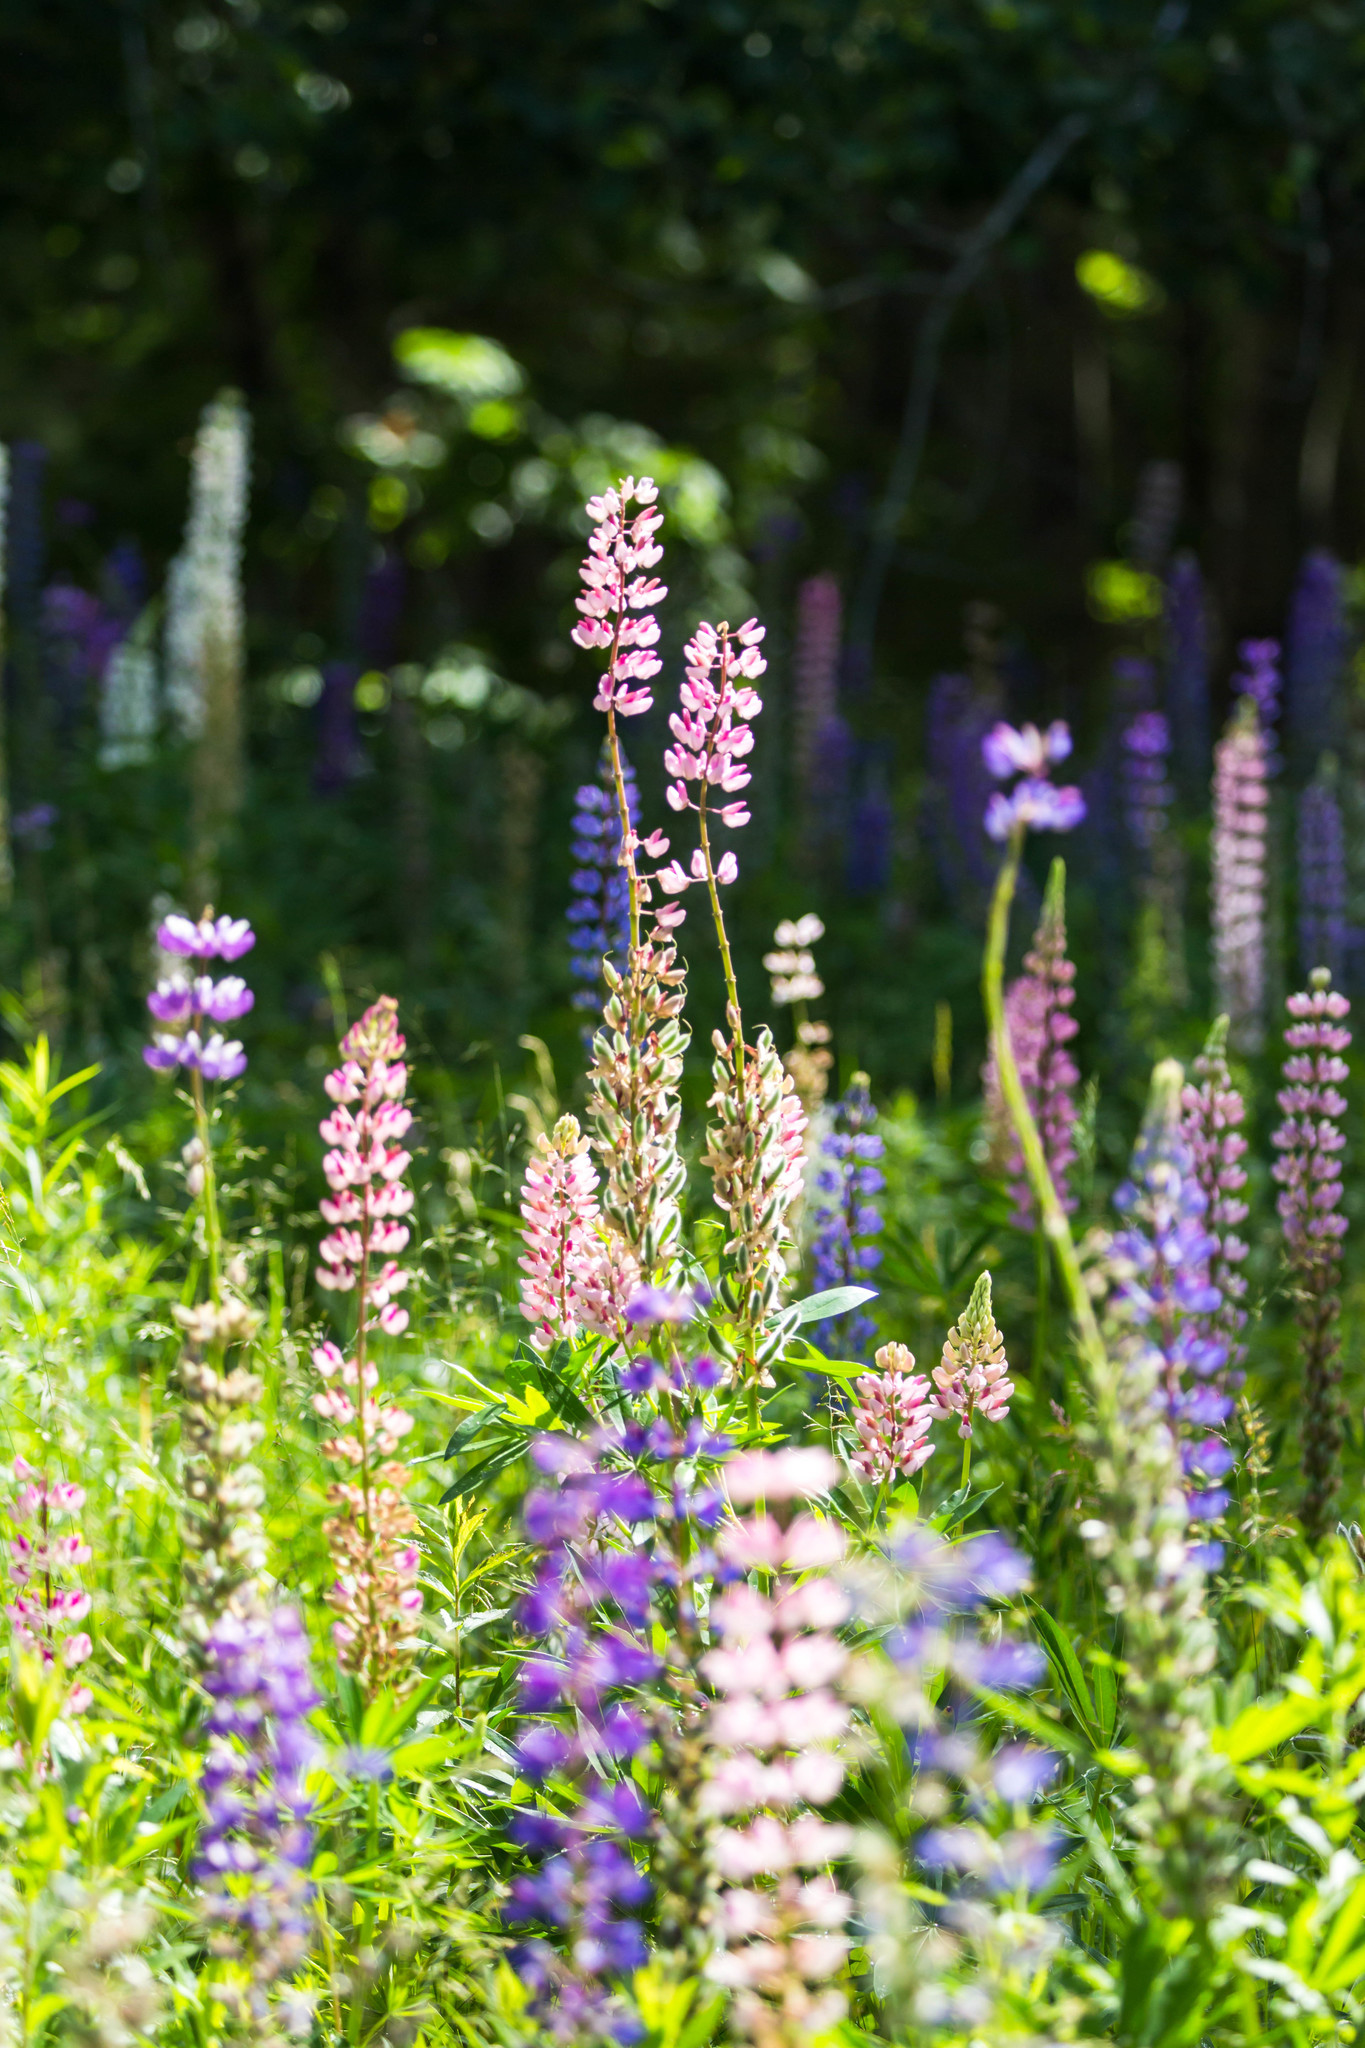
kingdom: Plantae
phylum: Tracheophyta
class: Magnoliopsida
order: Fabales
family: Fabaceae
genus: Lupinus
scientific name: Lupinus polyphyllus
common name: Garden lupin
